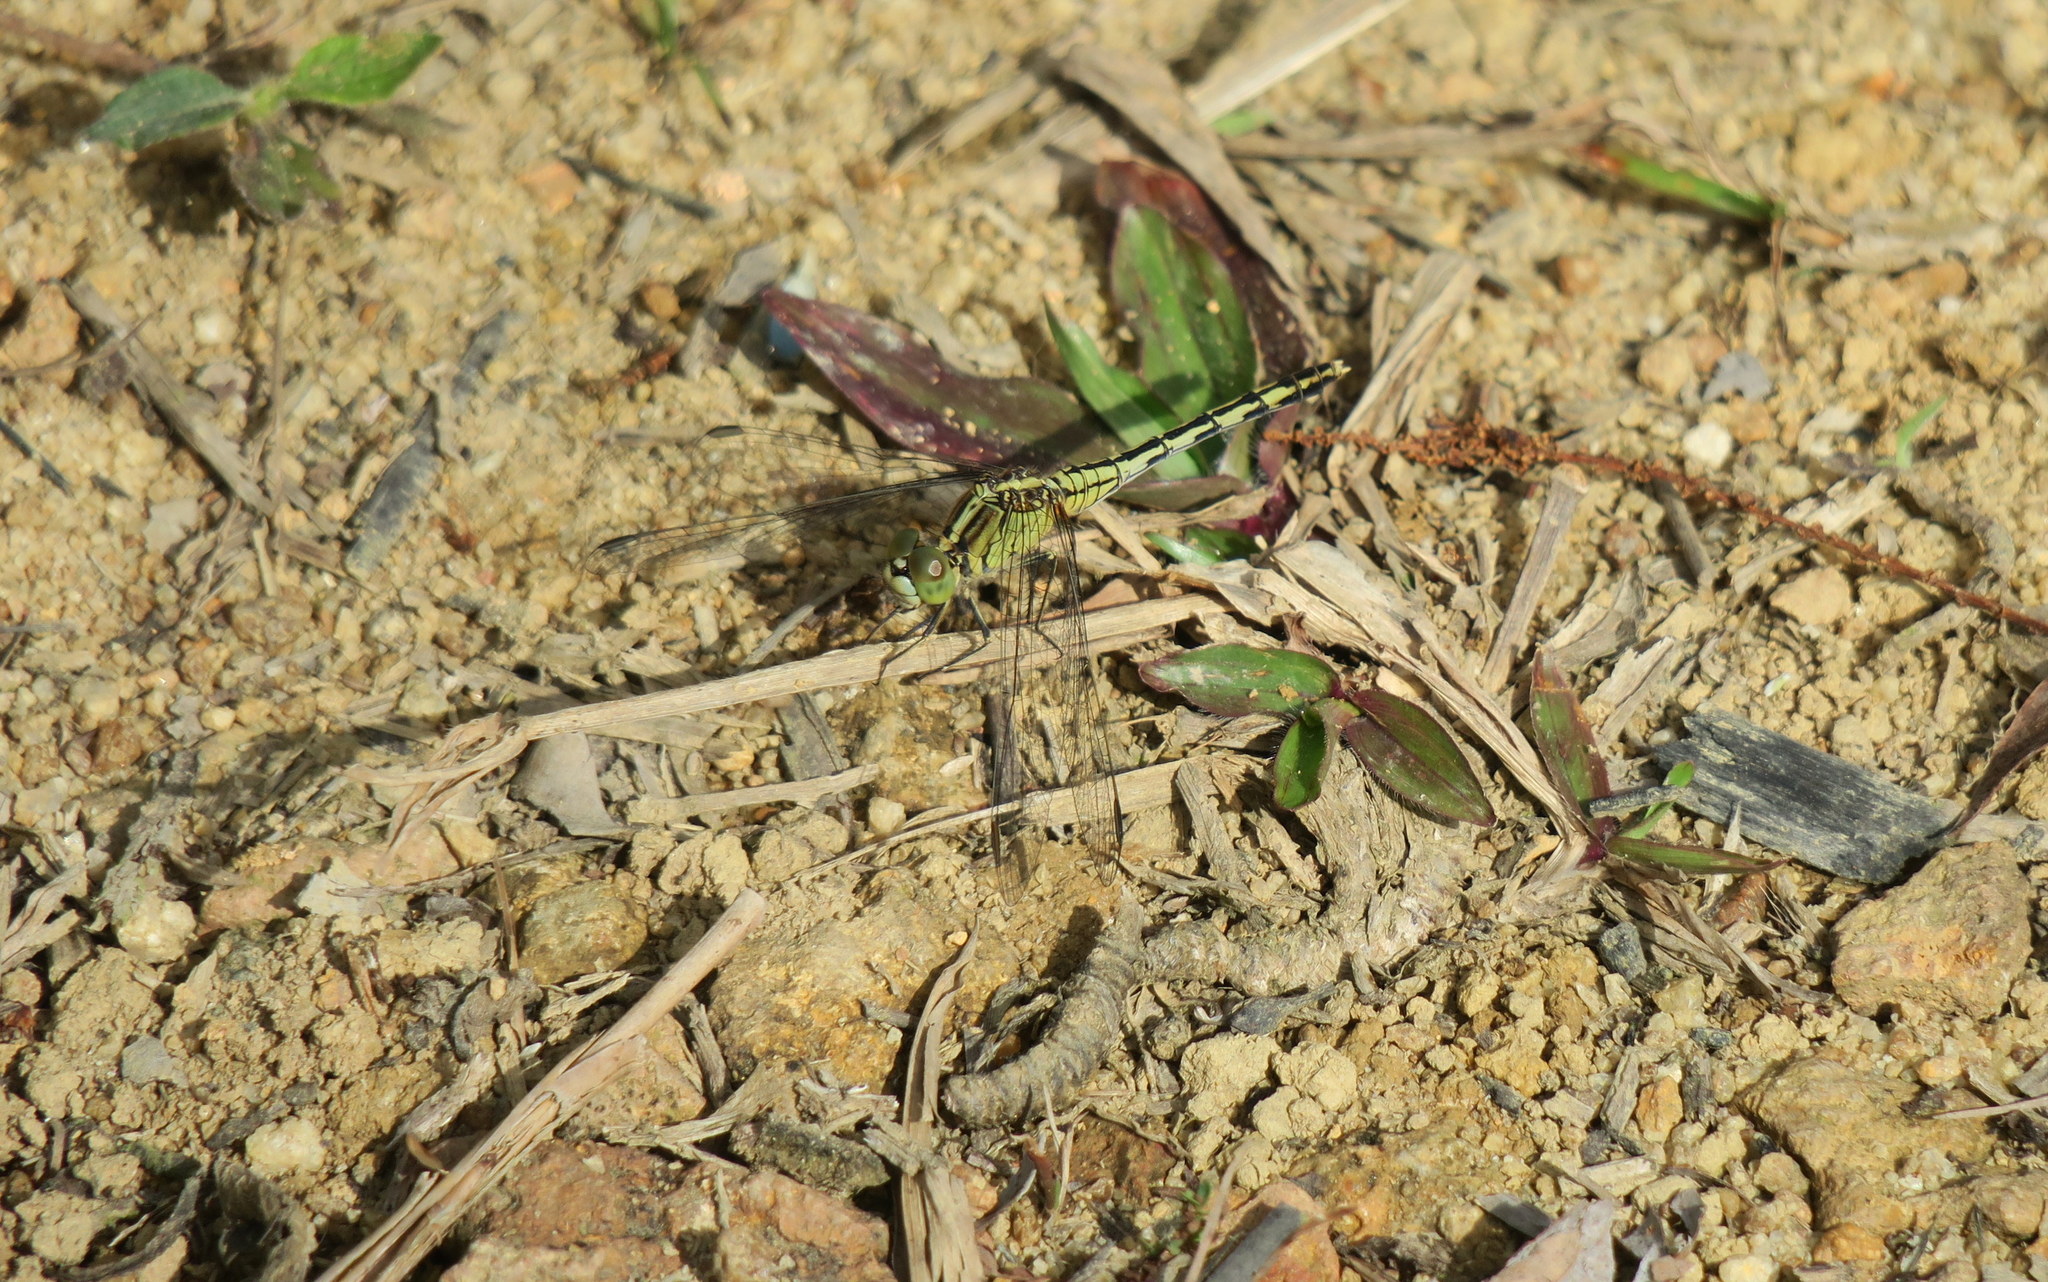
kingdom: Animalia
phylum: Arthropoda
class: Insecta
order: Odonata
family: Libellulidae
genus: Diplacodes
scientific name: Diplacodes trivialis
